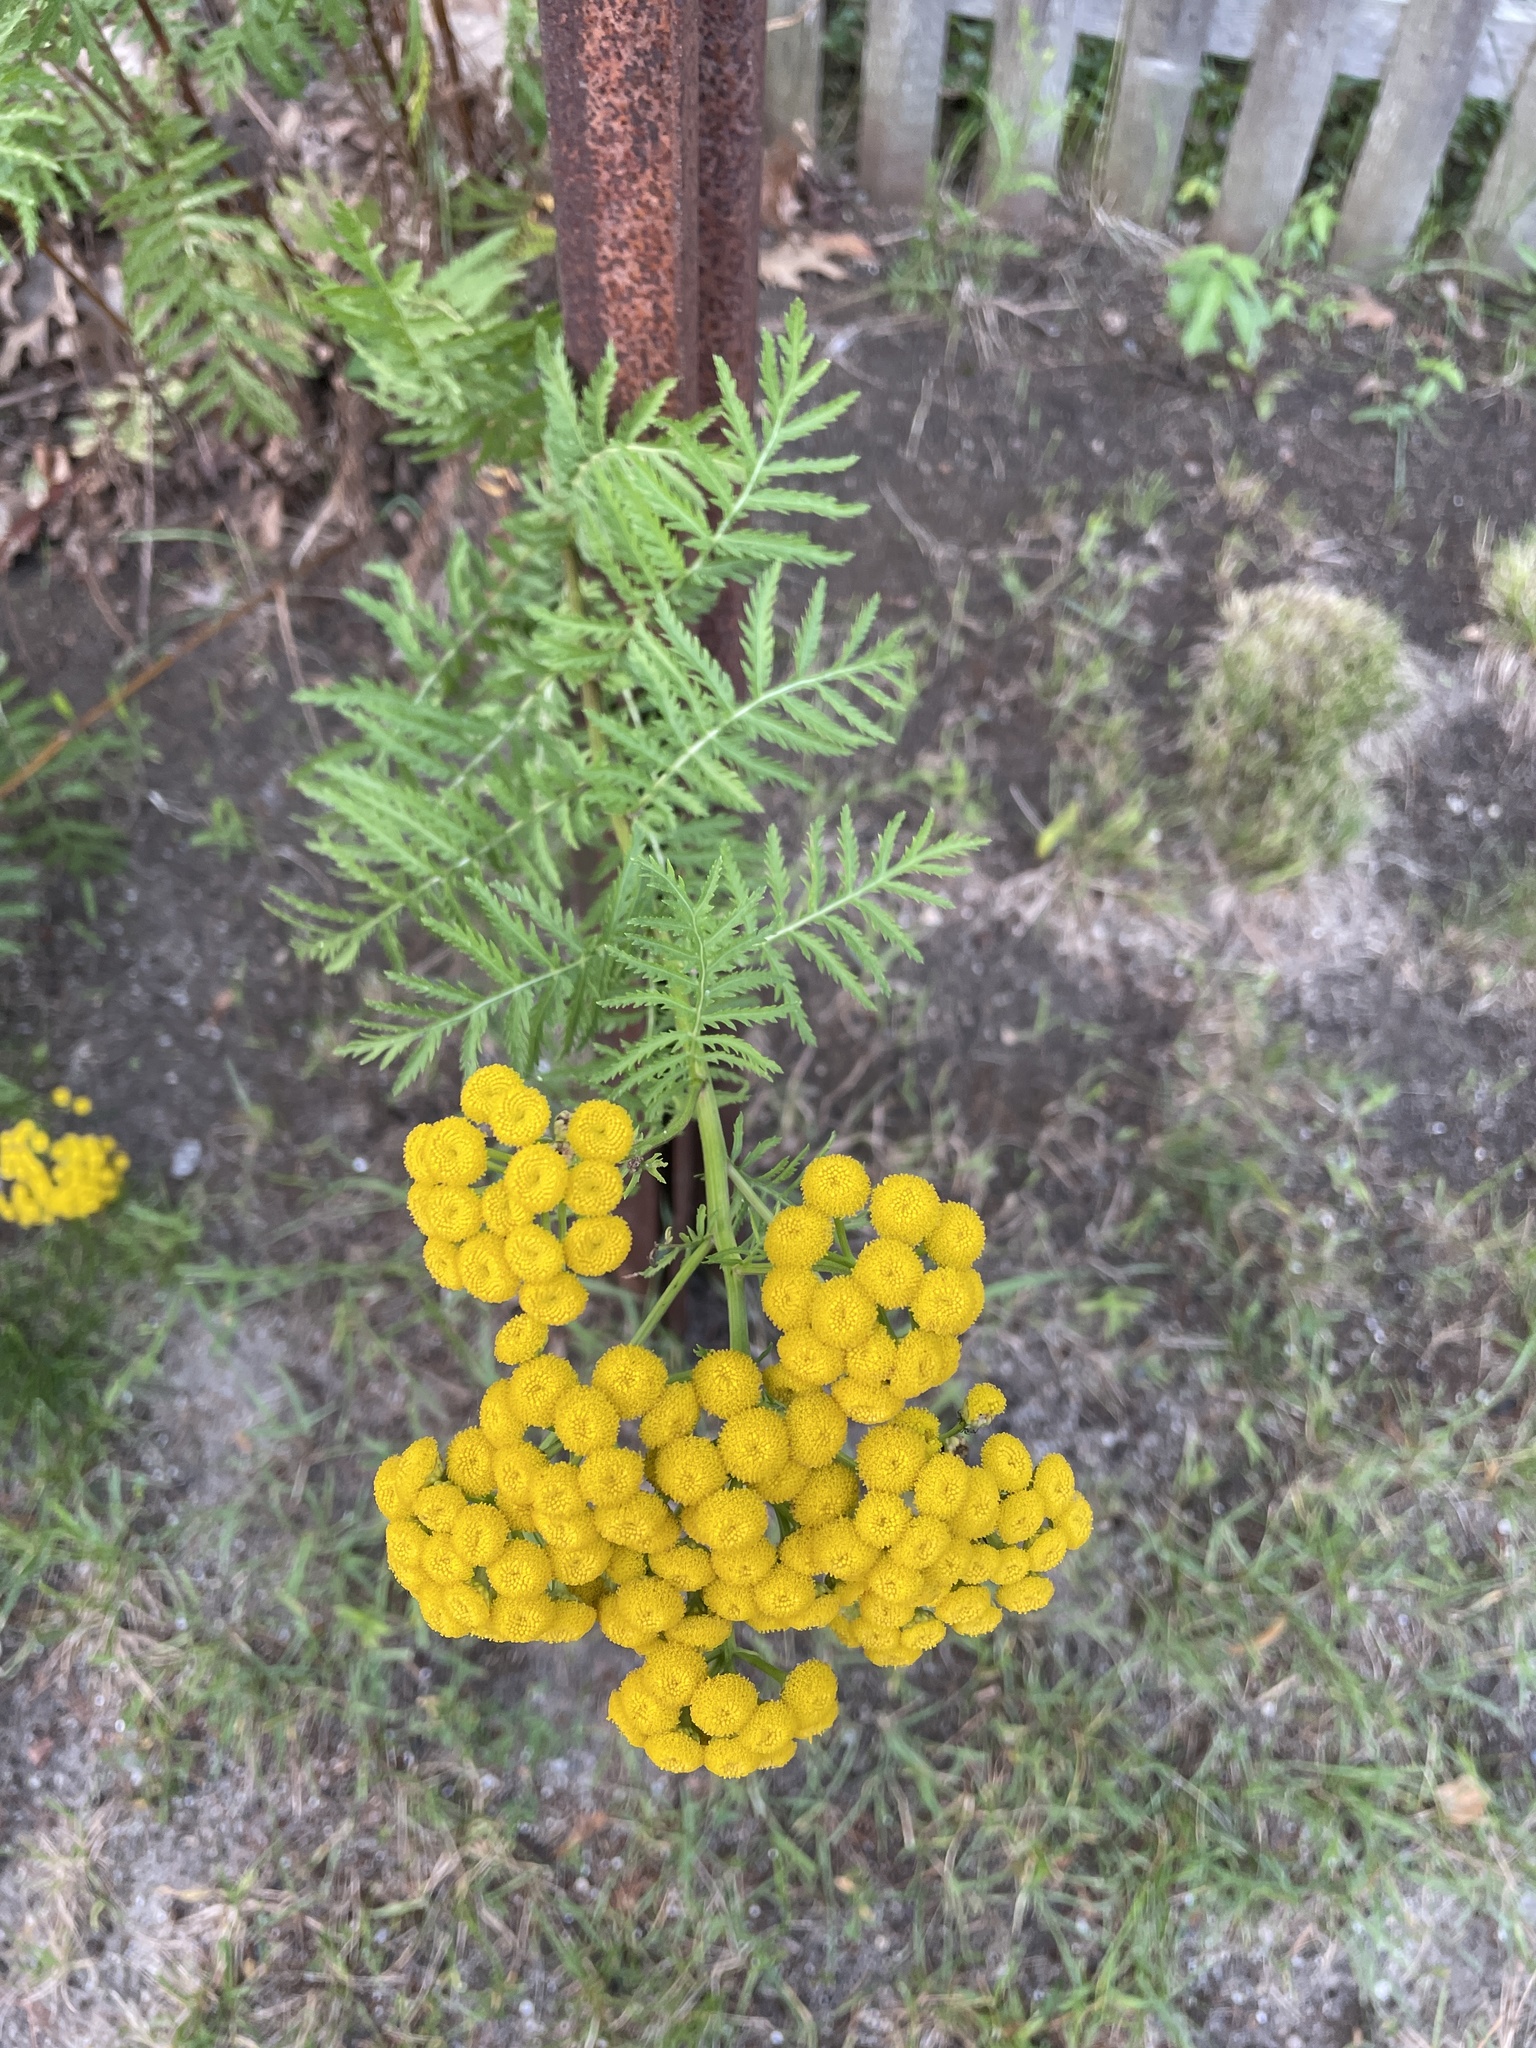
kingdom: Plantae
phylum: Tracheophyta
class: Magnoliopsida
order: Asterales
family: Asteraceae
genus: Tanacetum
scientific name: Tanacetum vulgare
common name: Common tansy
